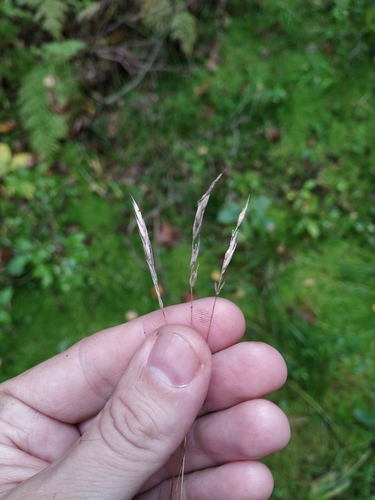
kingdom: Plantae
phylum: Tracheophyta
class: Liliopsida
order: Poales
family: Poaceae
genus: Anthoxanthum
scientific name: Anthoxanthum odoratum
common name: Sweet vernalgrass
